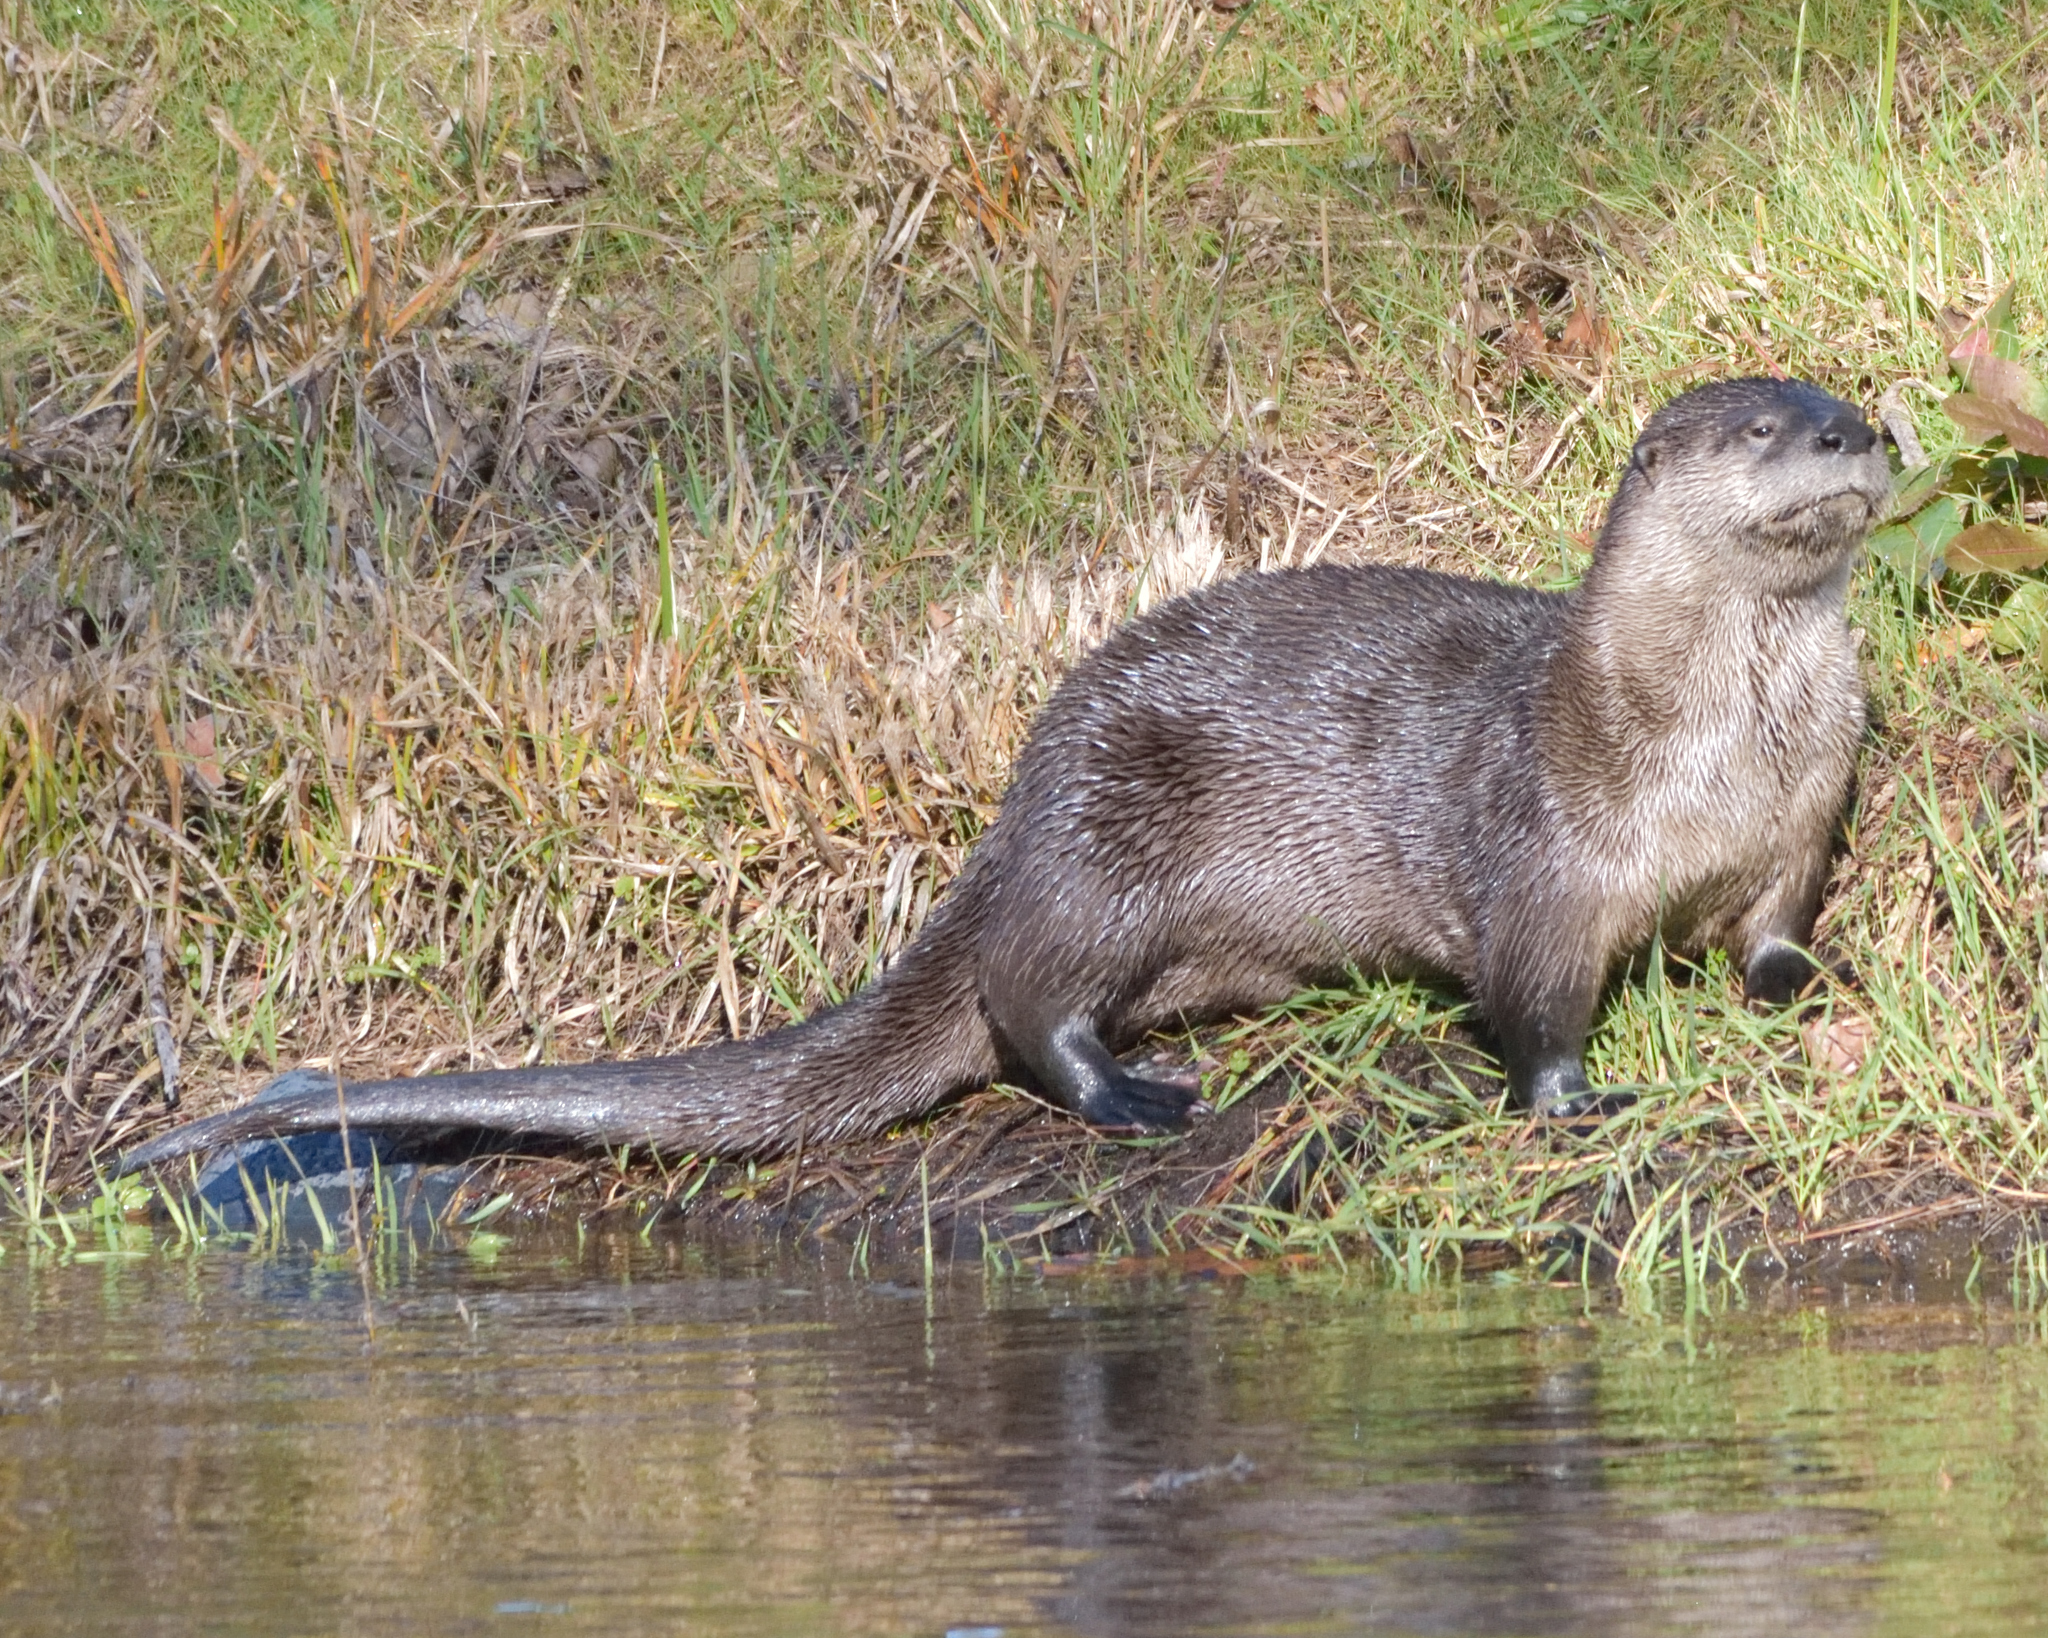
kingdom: Animalia
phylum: Chordata
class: Mammalia
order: Carnivora
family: Mustelidae
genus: Lontra
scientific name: Lontra canadensis
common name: North american river otter
